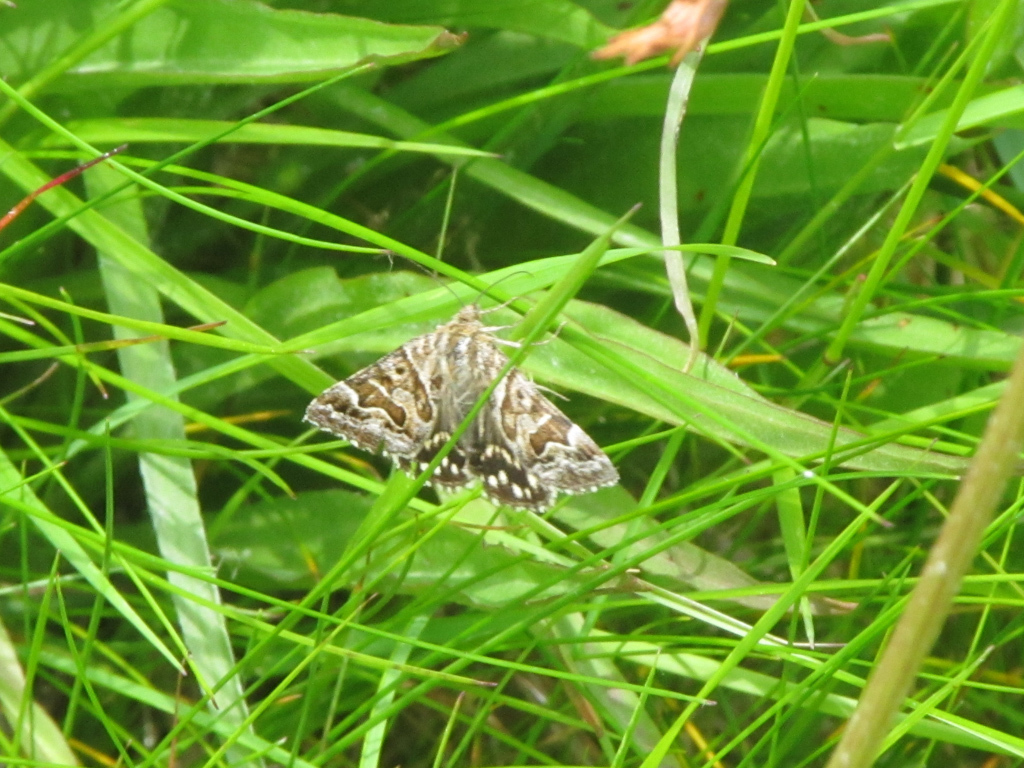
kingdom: Animalia
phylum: Arthropoda
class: Insecta
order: Lepidoptera
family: Erebidae
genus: Callistege
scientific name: Callistege mi
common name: Mother shipton
